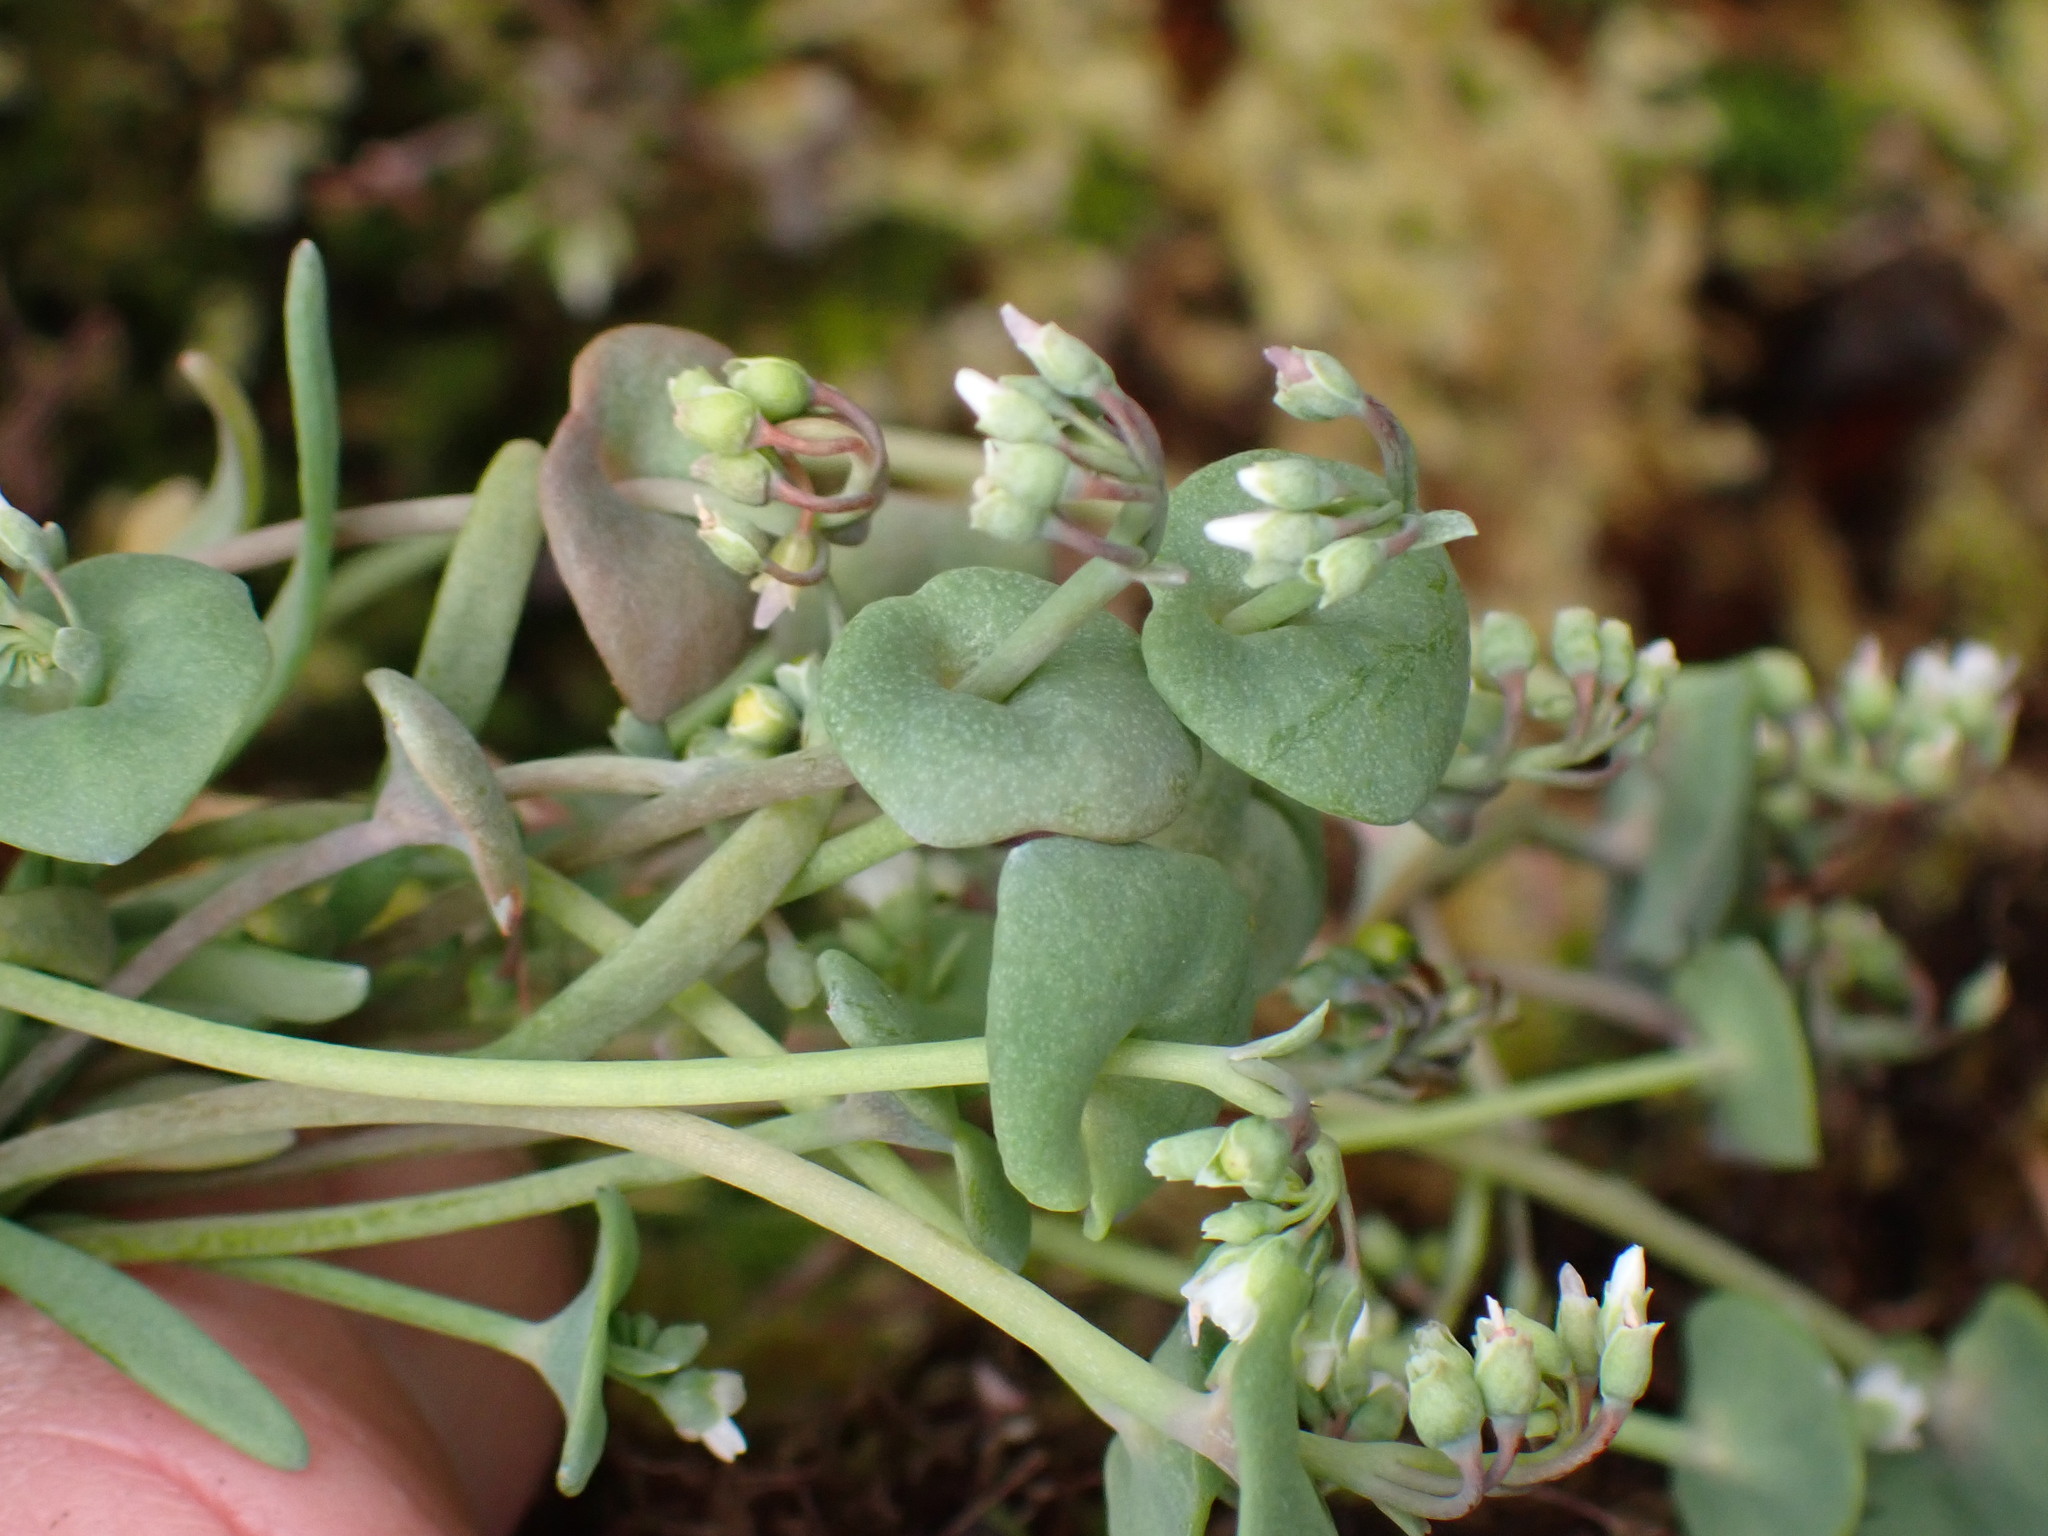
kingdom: Plantae
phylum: Tracheophyta
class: Magnoliopsida
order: Caryophyllales
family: Montiaceae
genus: Claytonia
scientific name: Claytonia exigua
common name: Pale spring beauty
